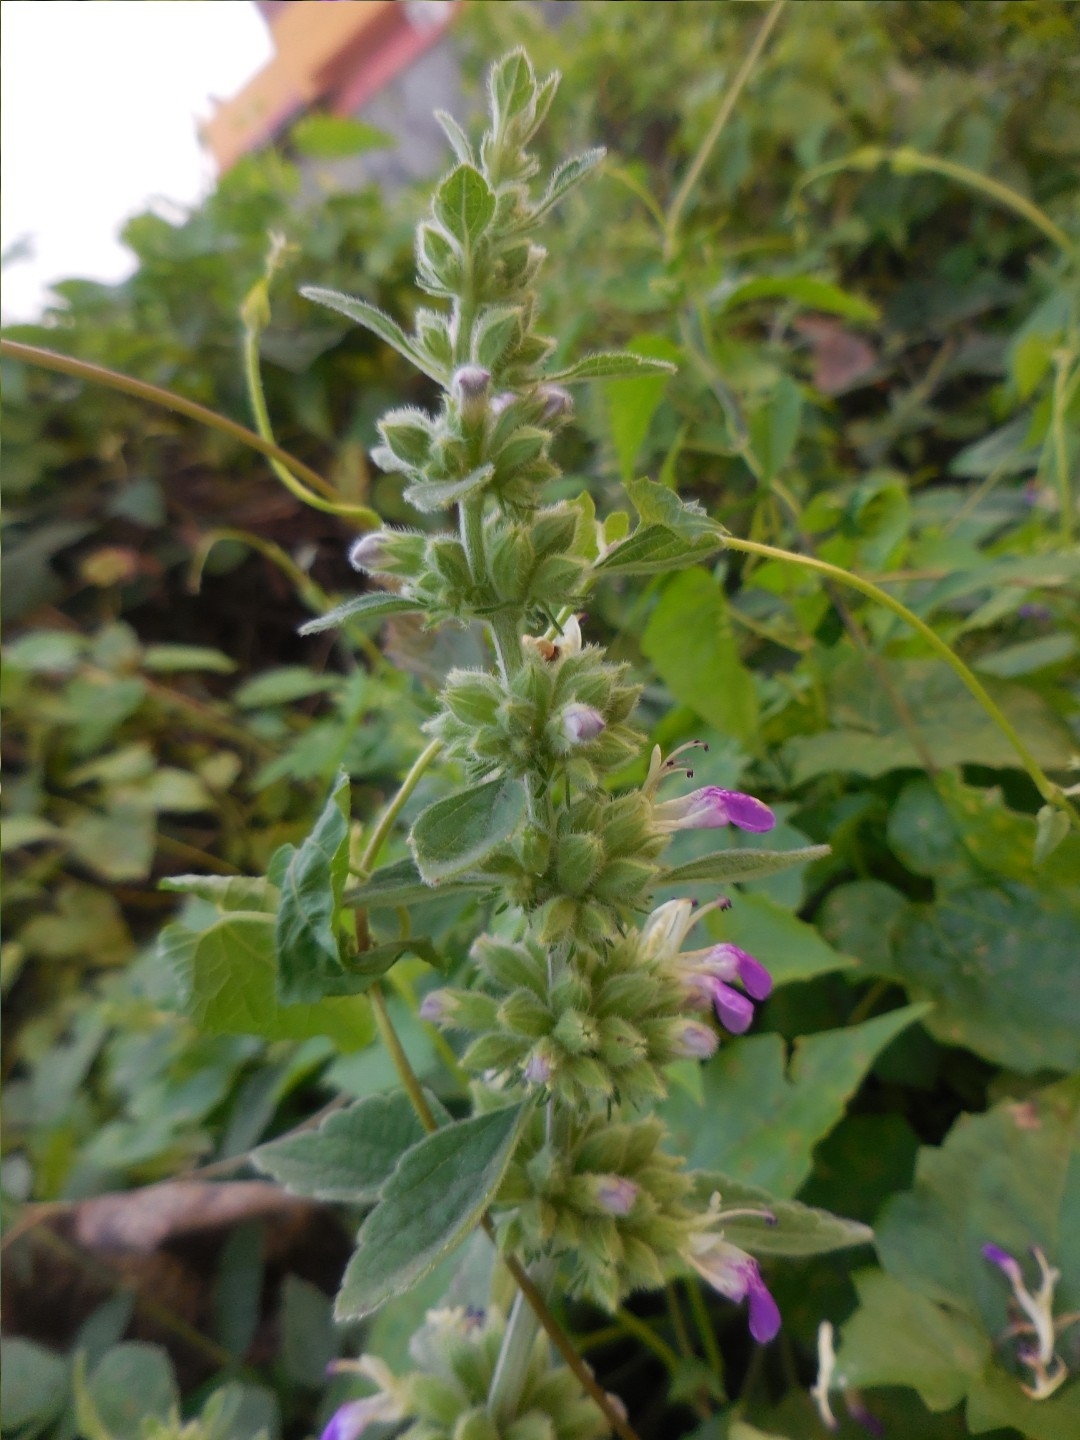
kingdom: Plantae
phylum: Tracheophyta
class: Magnoliopsida
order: Lamiales
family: Lamiaceae
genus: Anisomeles
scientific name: Anisomeles indica
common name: Catmint
